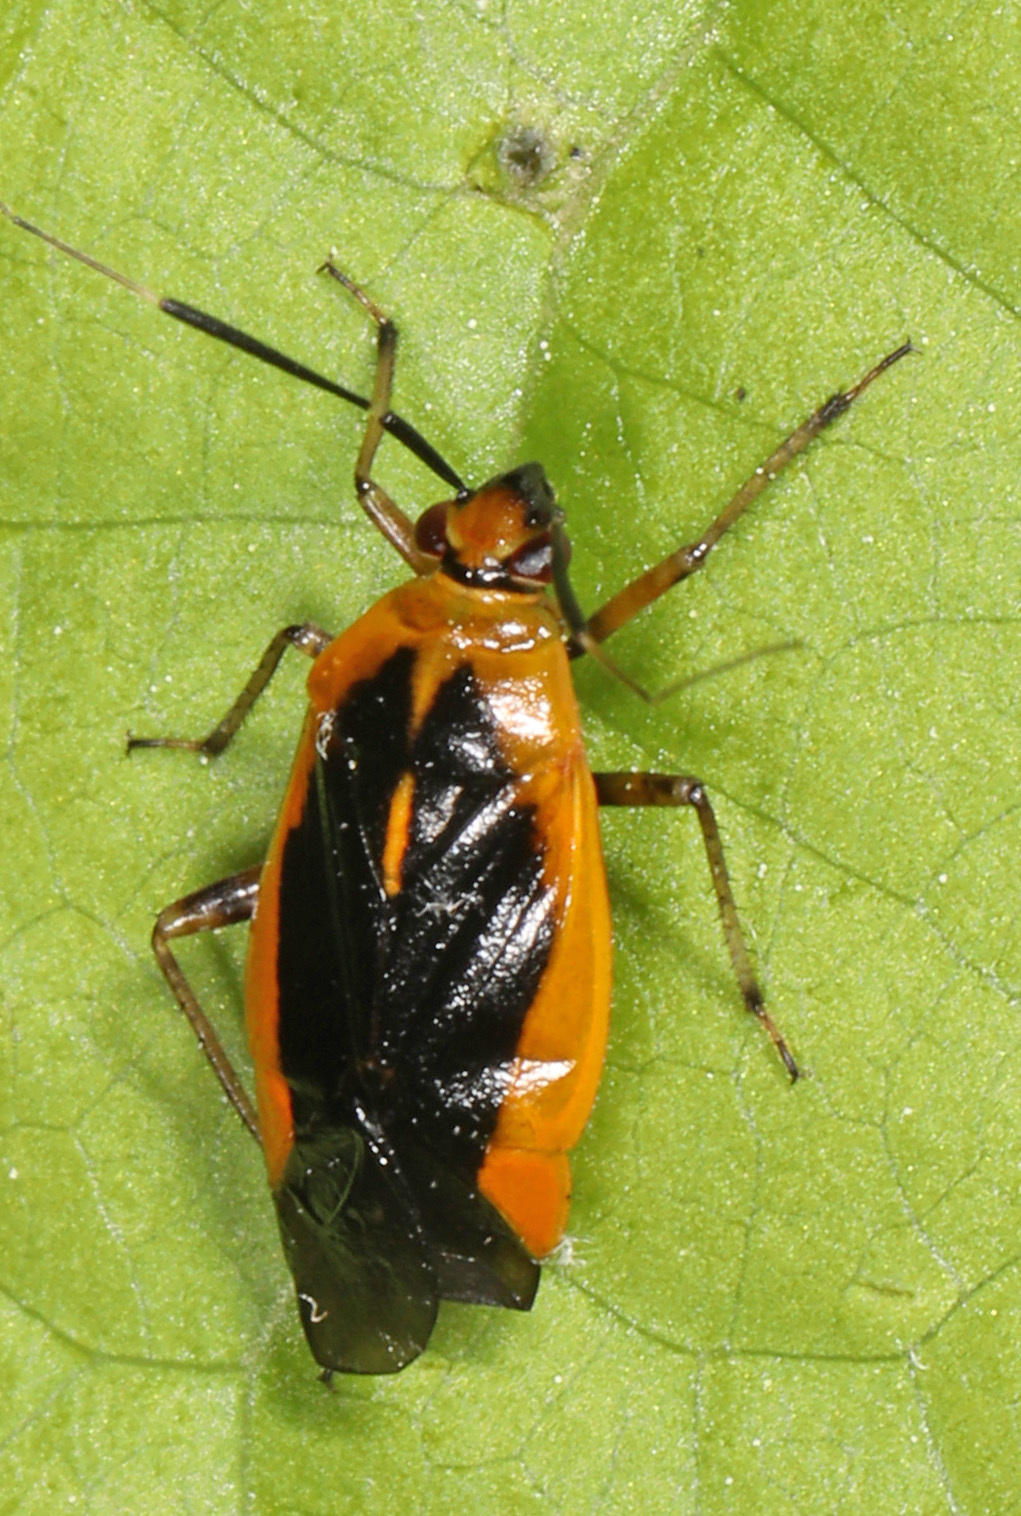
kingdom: Animalia
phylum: Arthropoda
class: Insecta
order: Hemiptera
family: Miridae
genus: Metriorrhynchomiris
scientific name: Metriorrhynchomiris dislocatus
